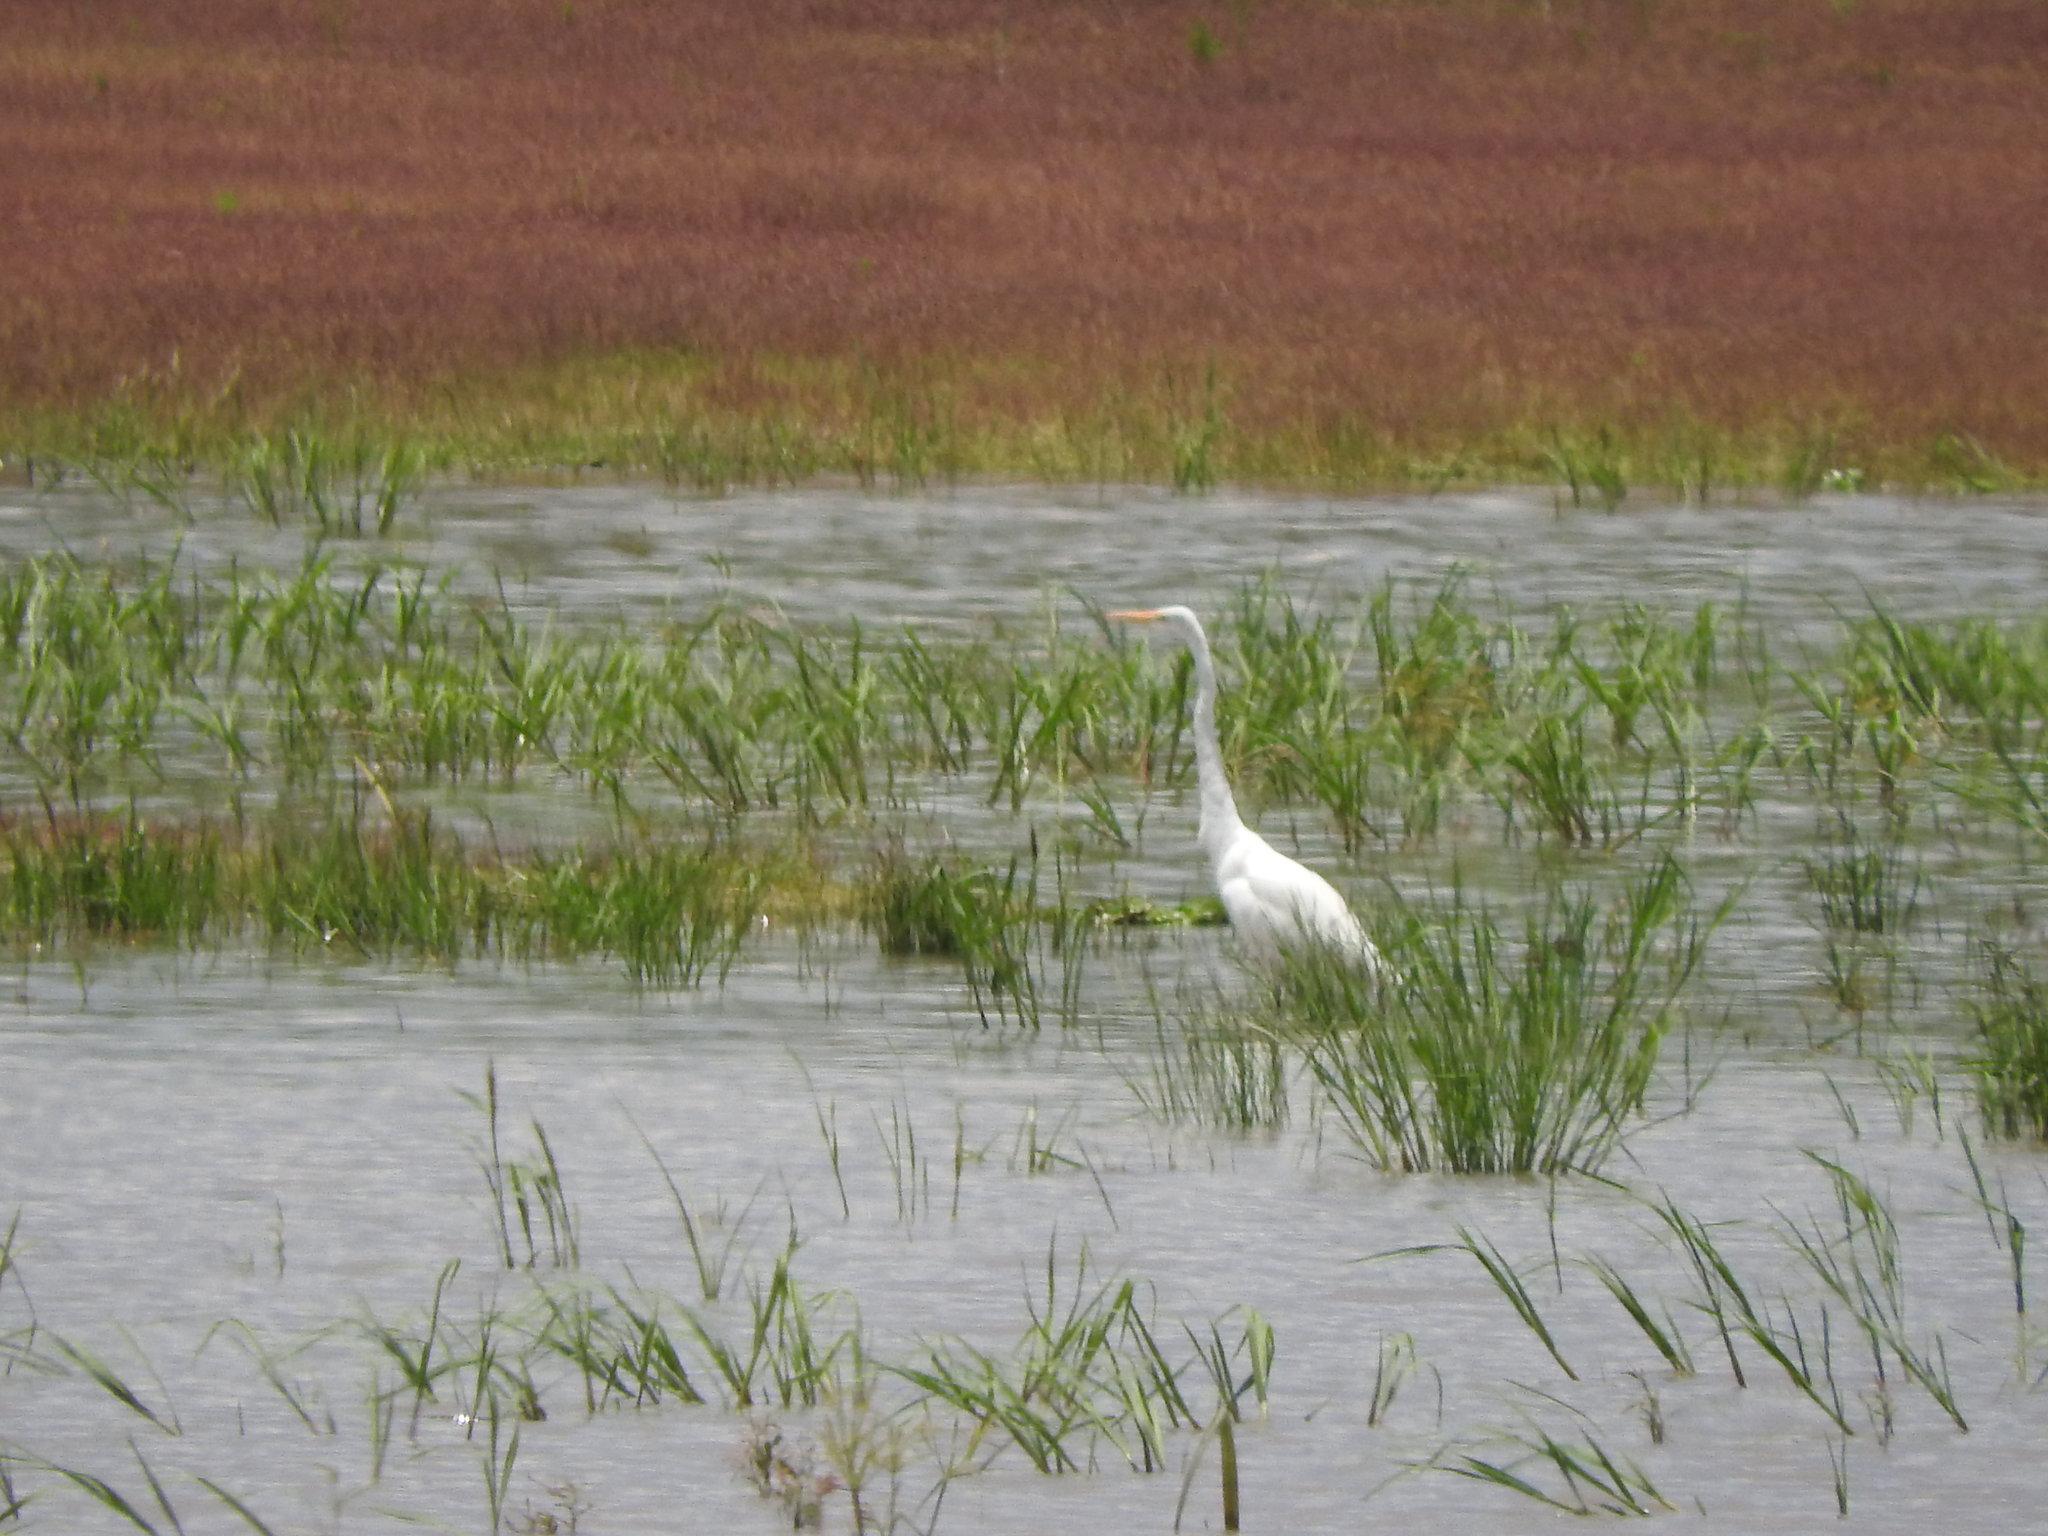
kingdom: Animalia
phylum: Chordata
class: Aves
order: Pelecaniformes
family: Ardeidae
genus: Ardea
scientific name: Ardea alba
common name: Great egret
